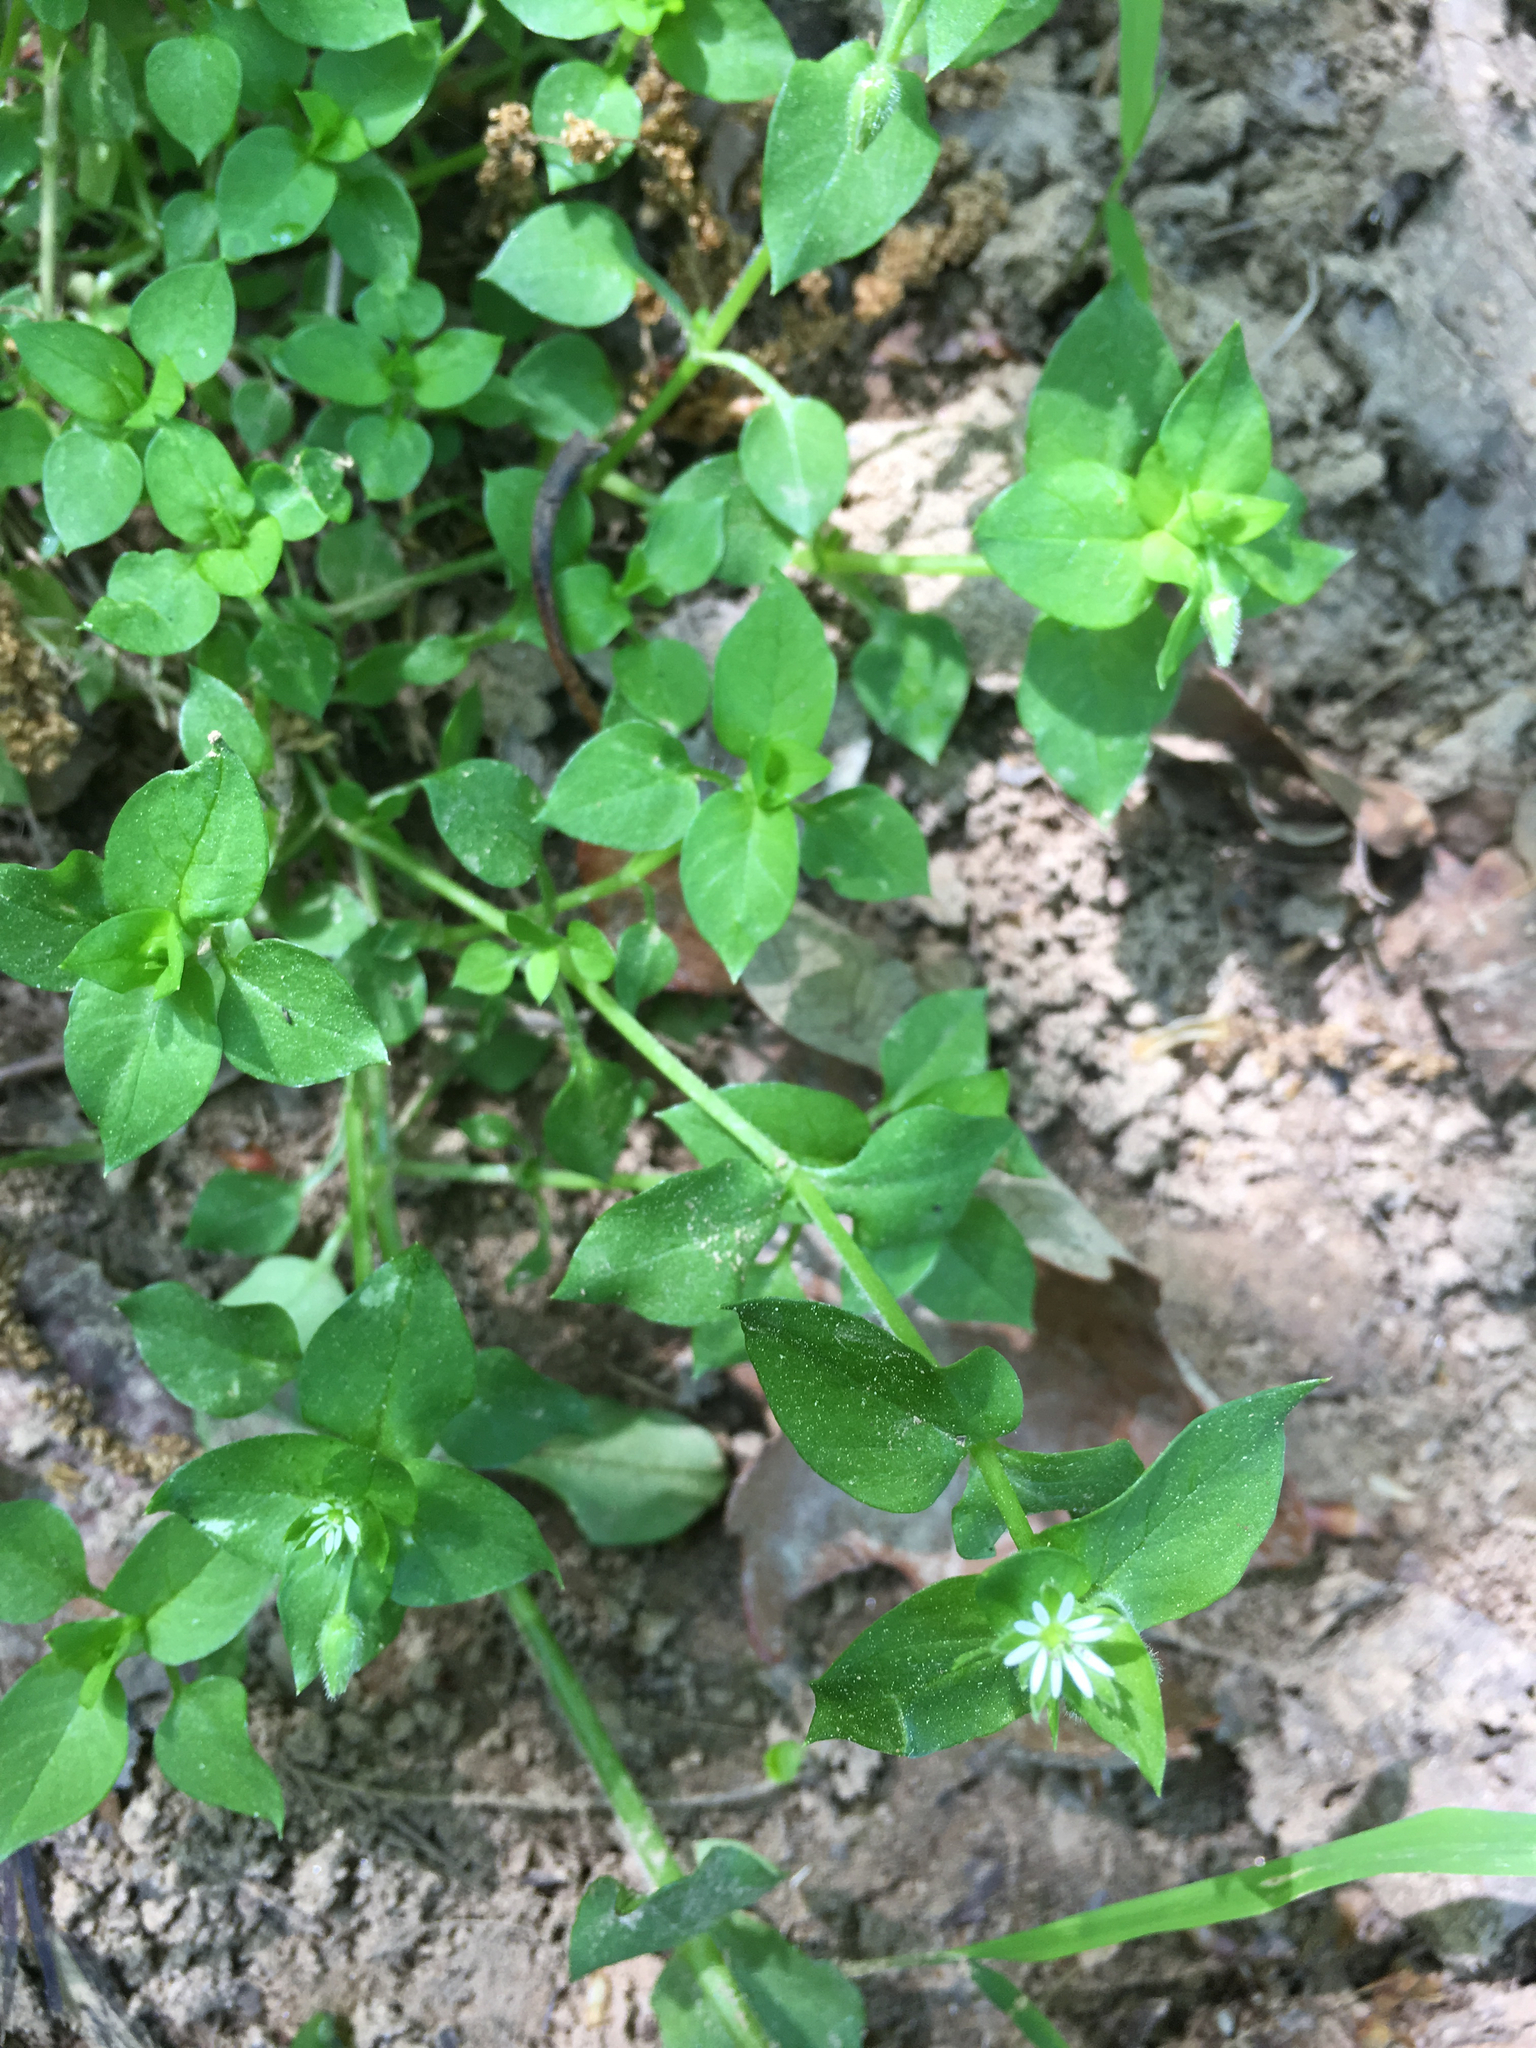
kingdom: Plantae
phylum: Tracheophyta
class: Magnoliopsida
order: Caryophyllales
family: Caryophyllaceae
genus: Stellaria
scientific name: Stellaria media
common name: Common chickweed
